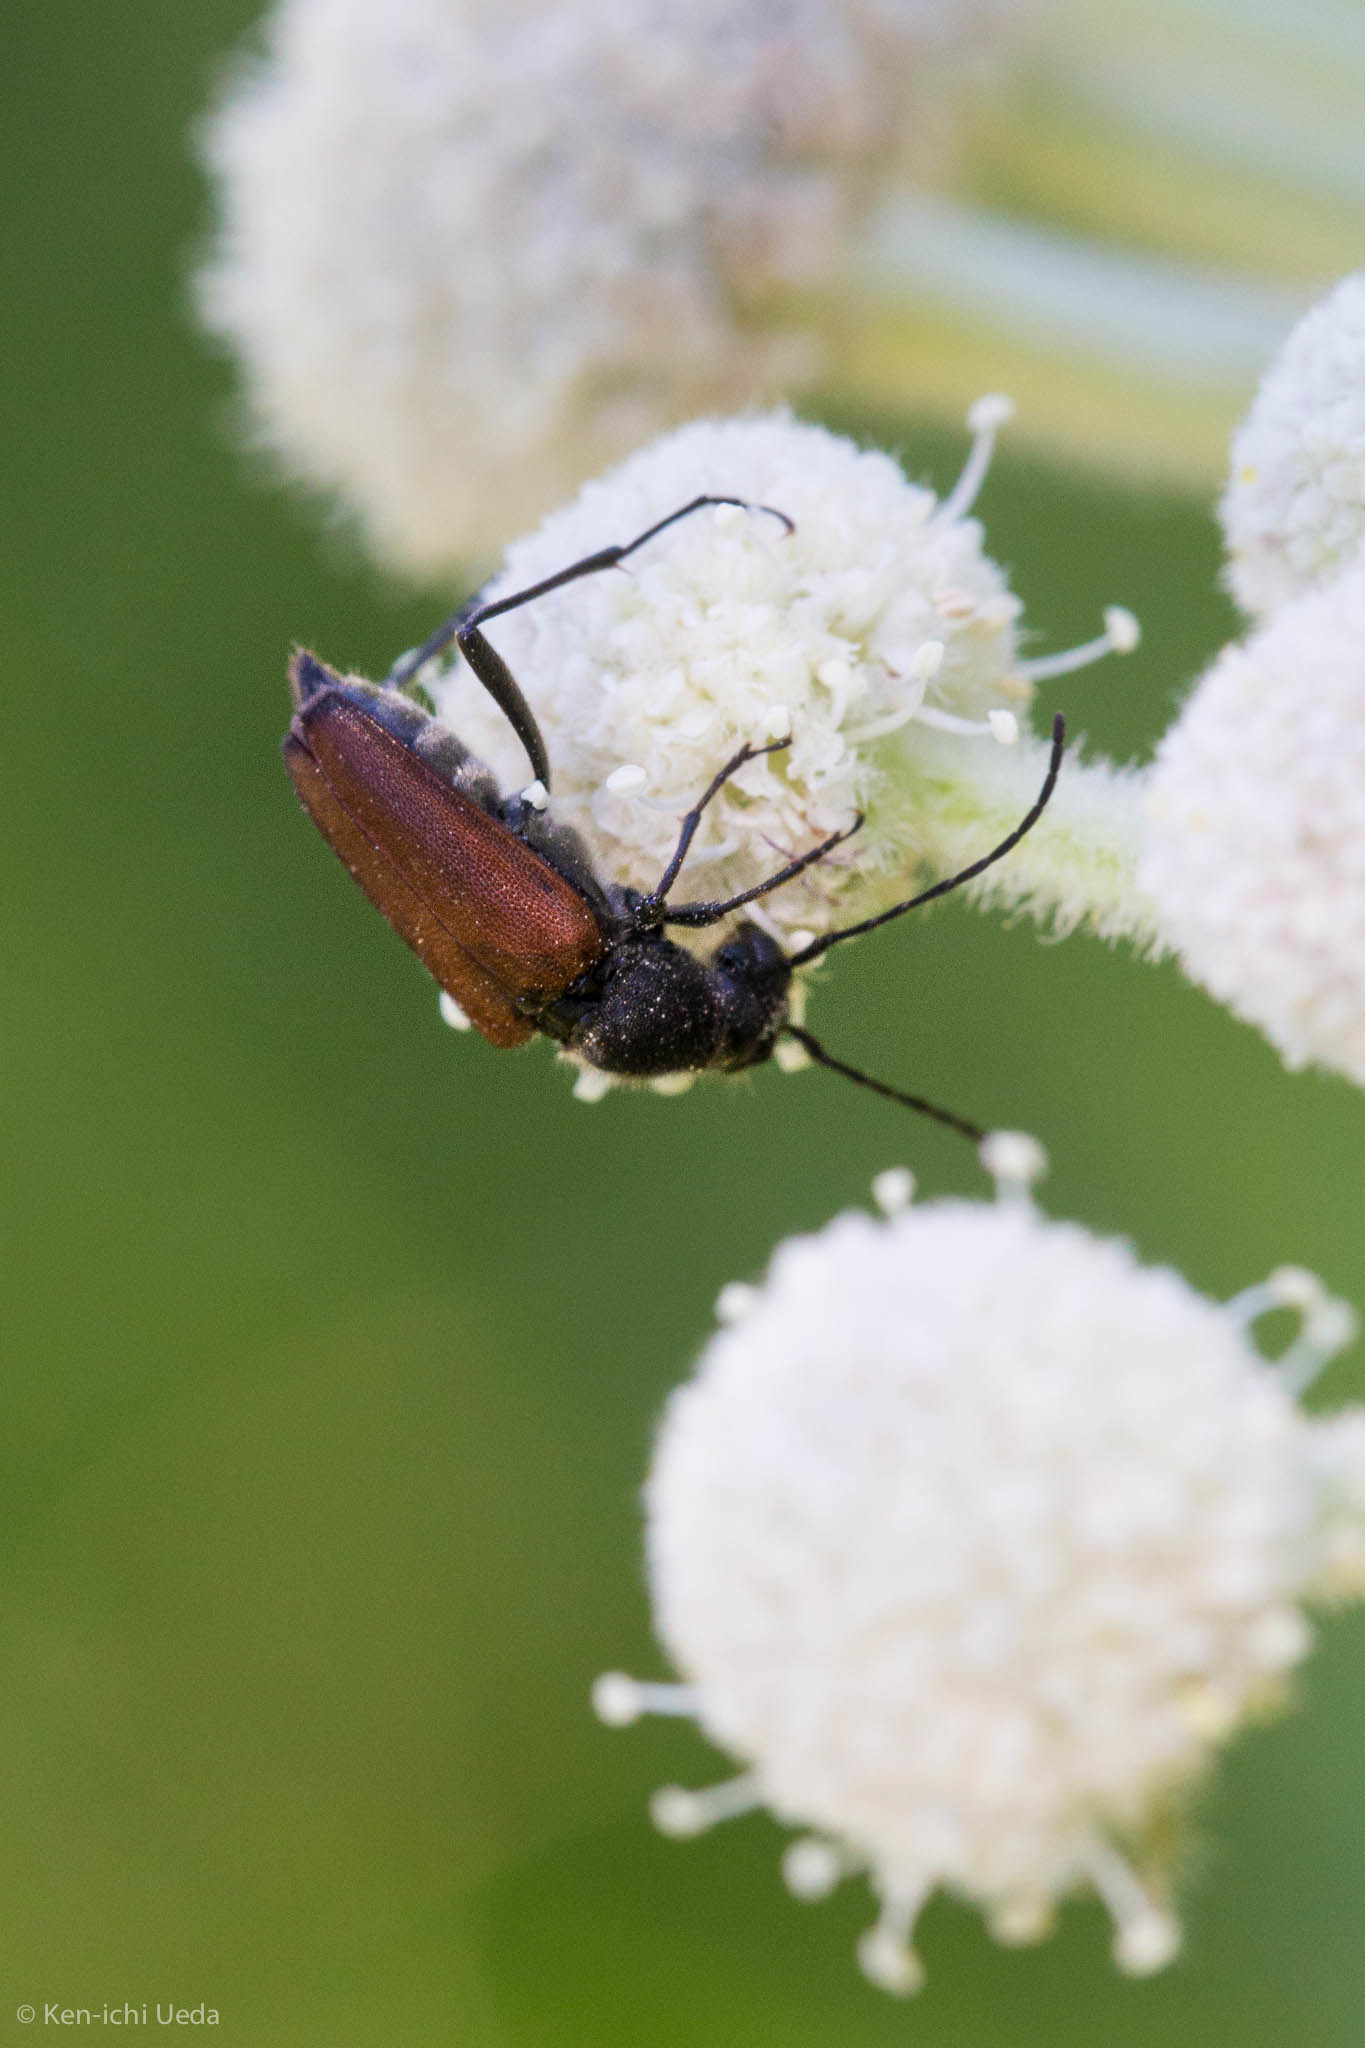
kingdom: Animalia
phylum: Arthropoda
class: Insecta
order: Coleoptera
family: Cerambycidae
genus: Anastrangalia
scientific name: Anastrangalia sanguinea
